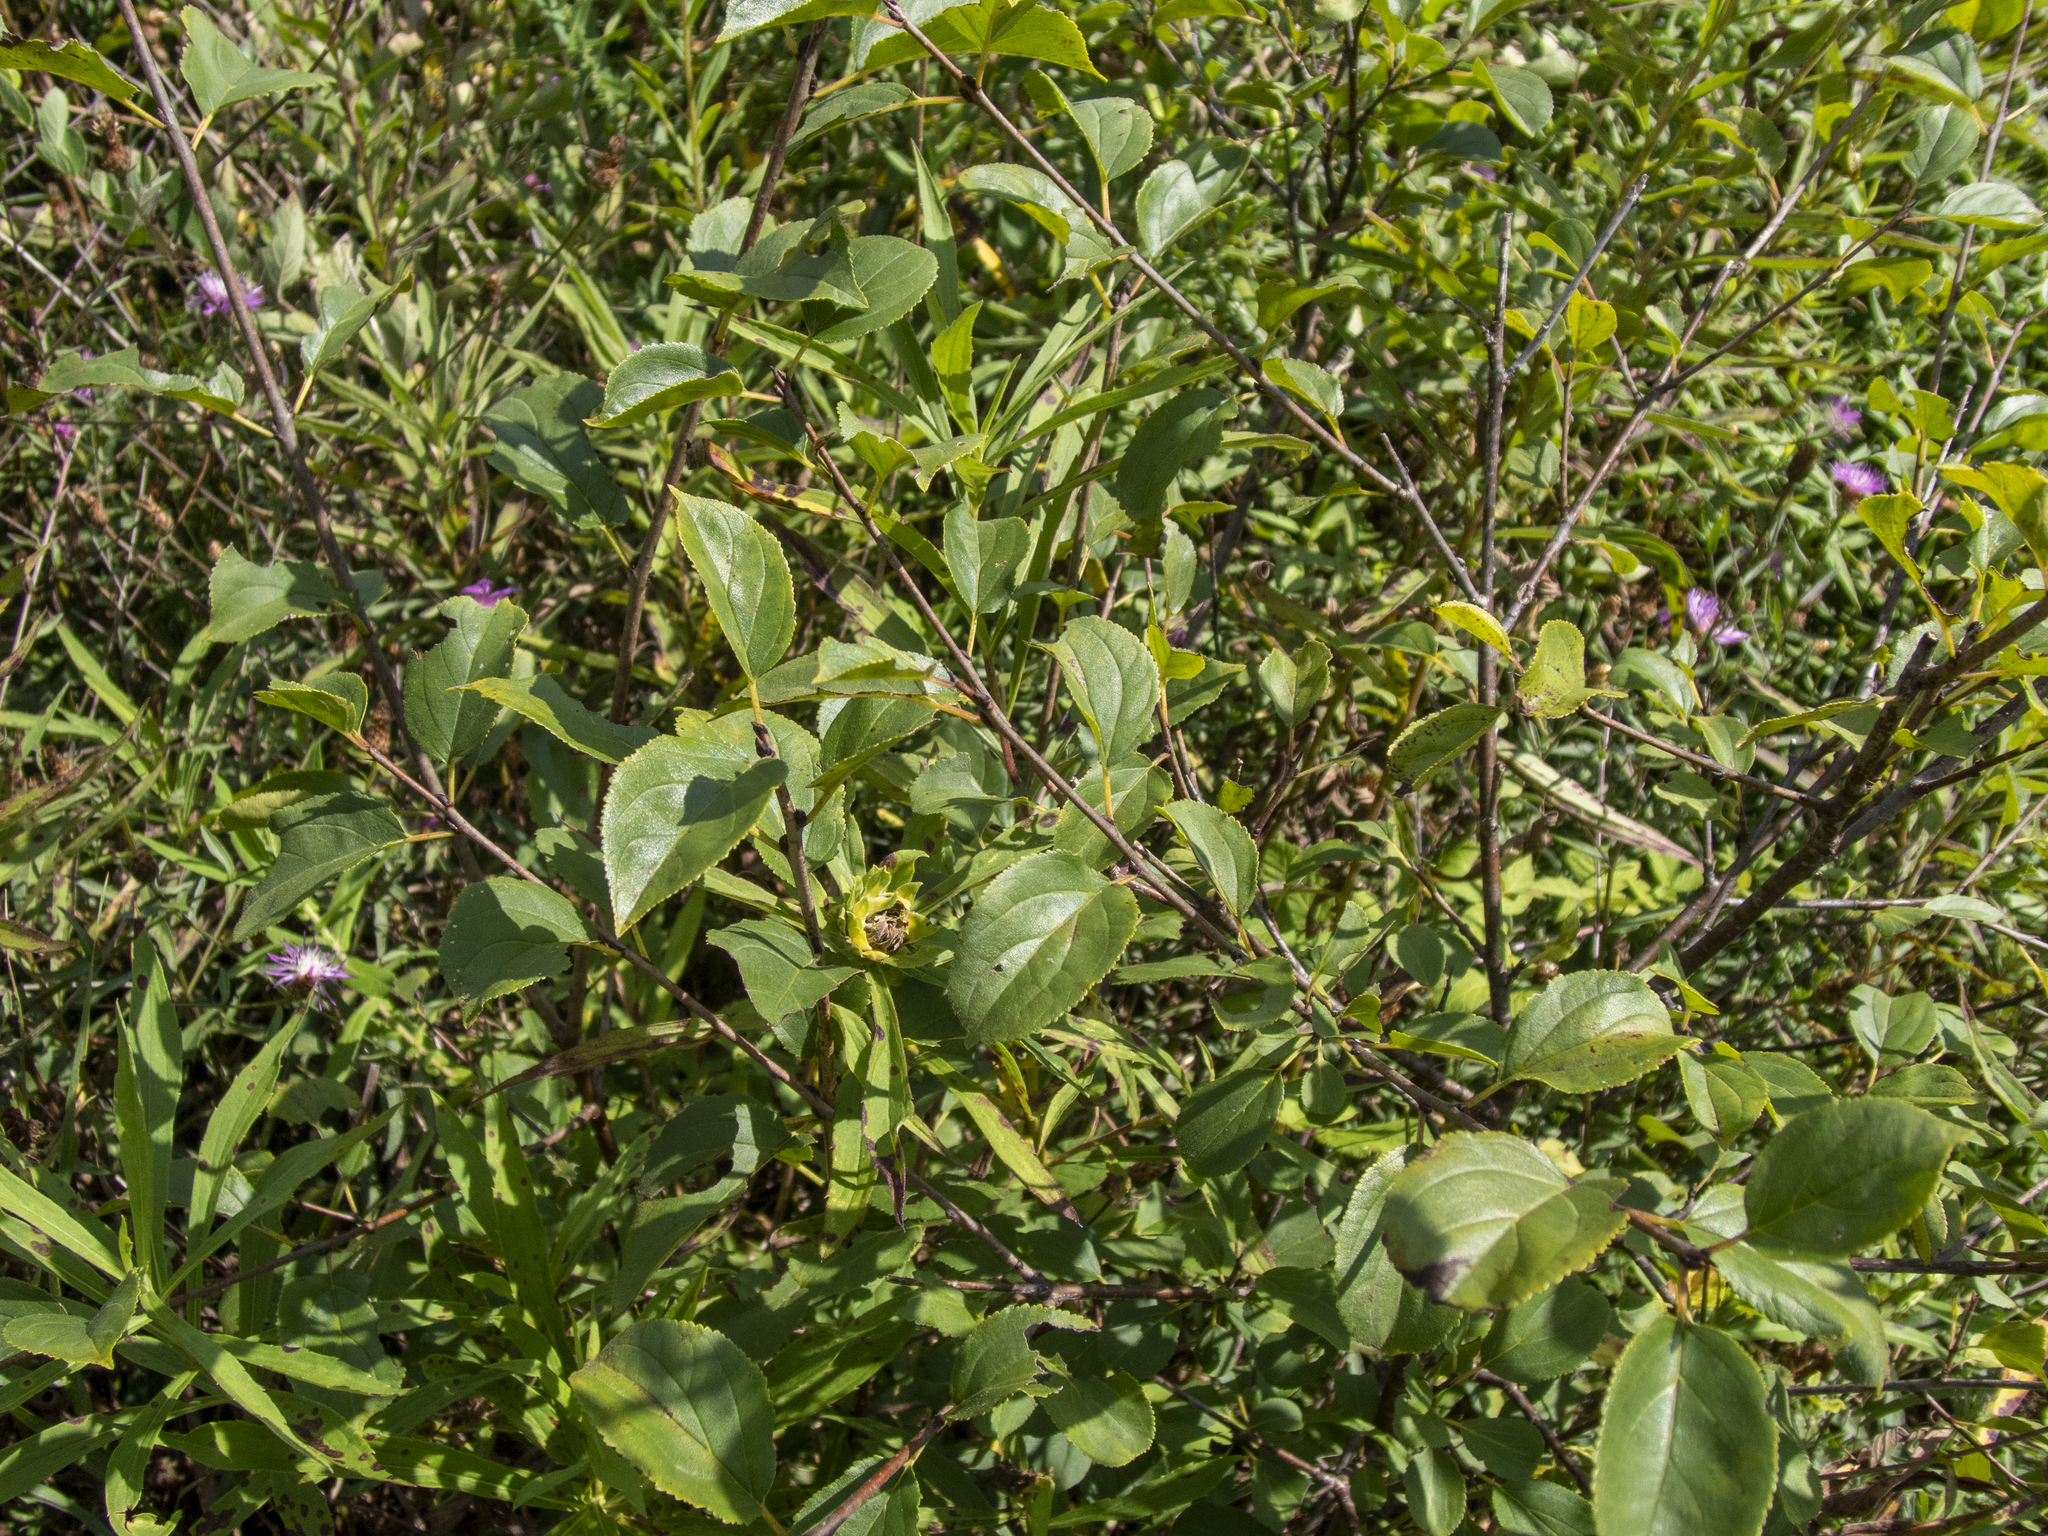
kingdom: Plantae
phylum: Tracheophyta
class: Magnoliopsida
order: Rosales
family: Rhamnaceae
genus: Rhamnus
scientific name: Rhamnus cathartica
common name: Common buckthorn
